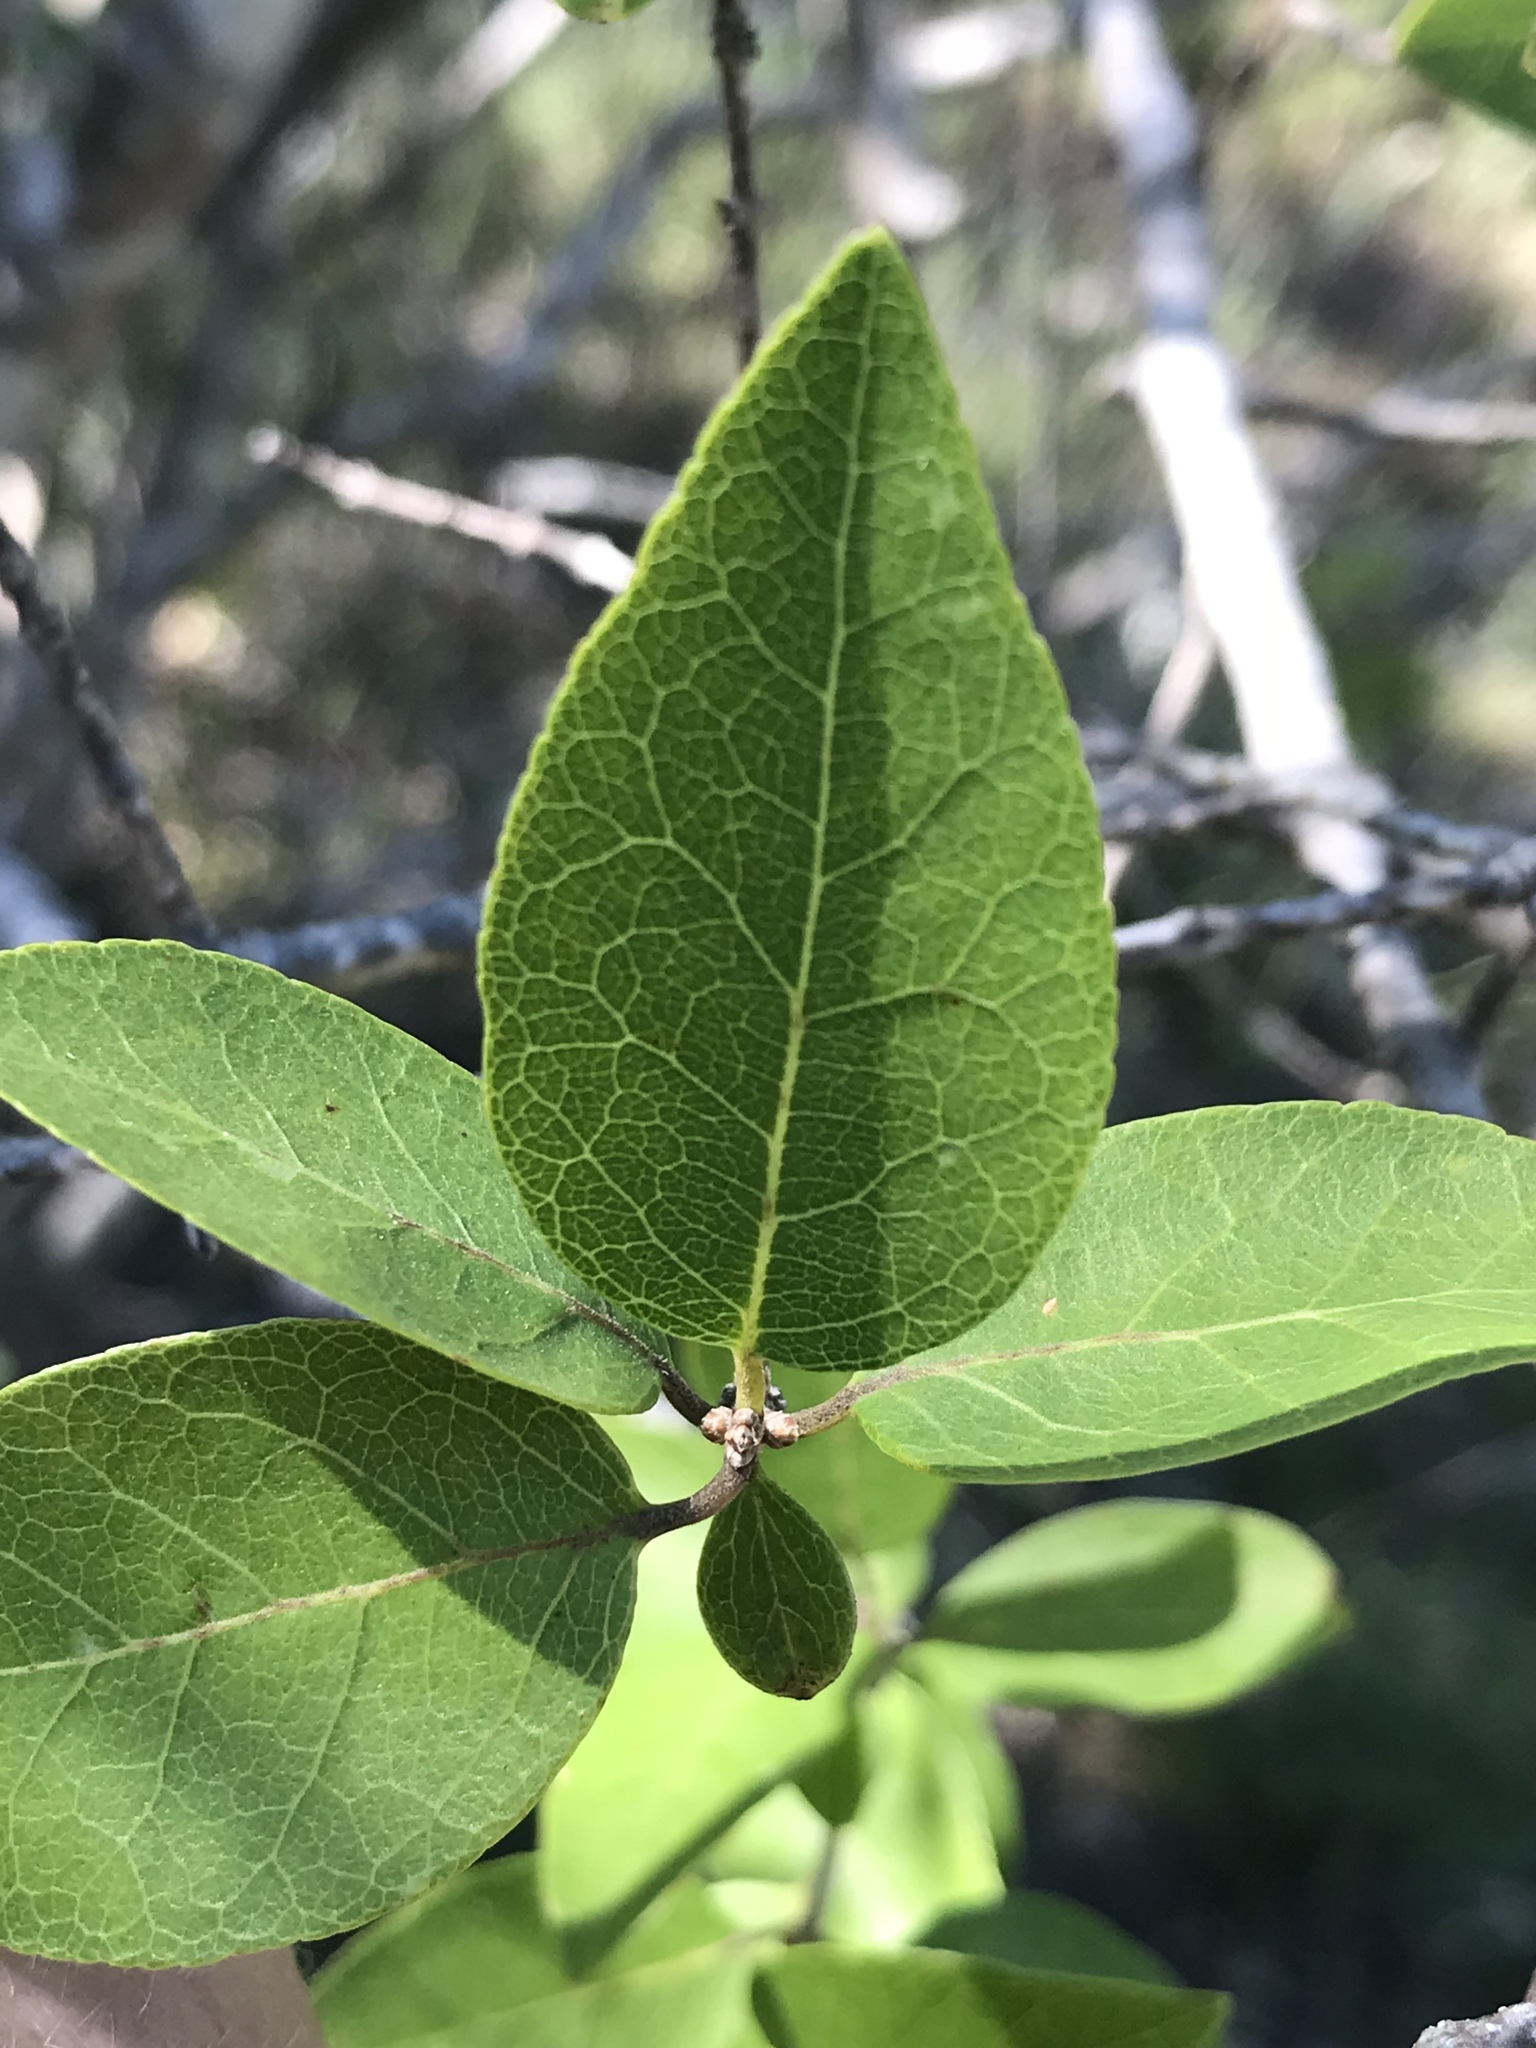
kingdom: Plantae
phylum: Tracheophyta
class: Magnoliopsida
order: Lamiales
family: Oleaceae
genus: Forestiera
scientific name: Forestiera reticulata
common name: Netleaf swamp-privet
